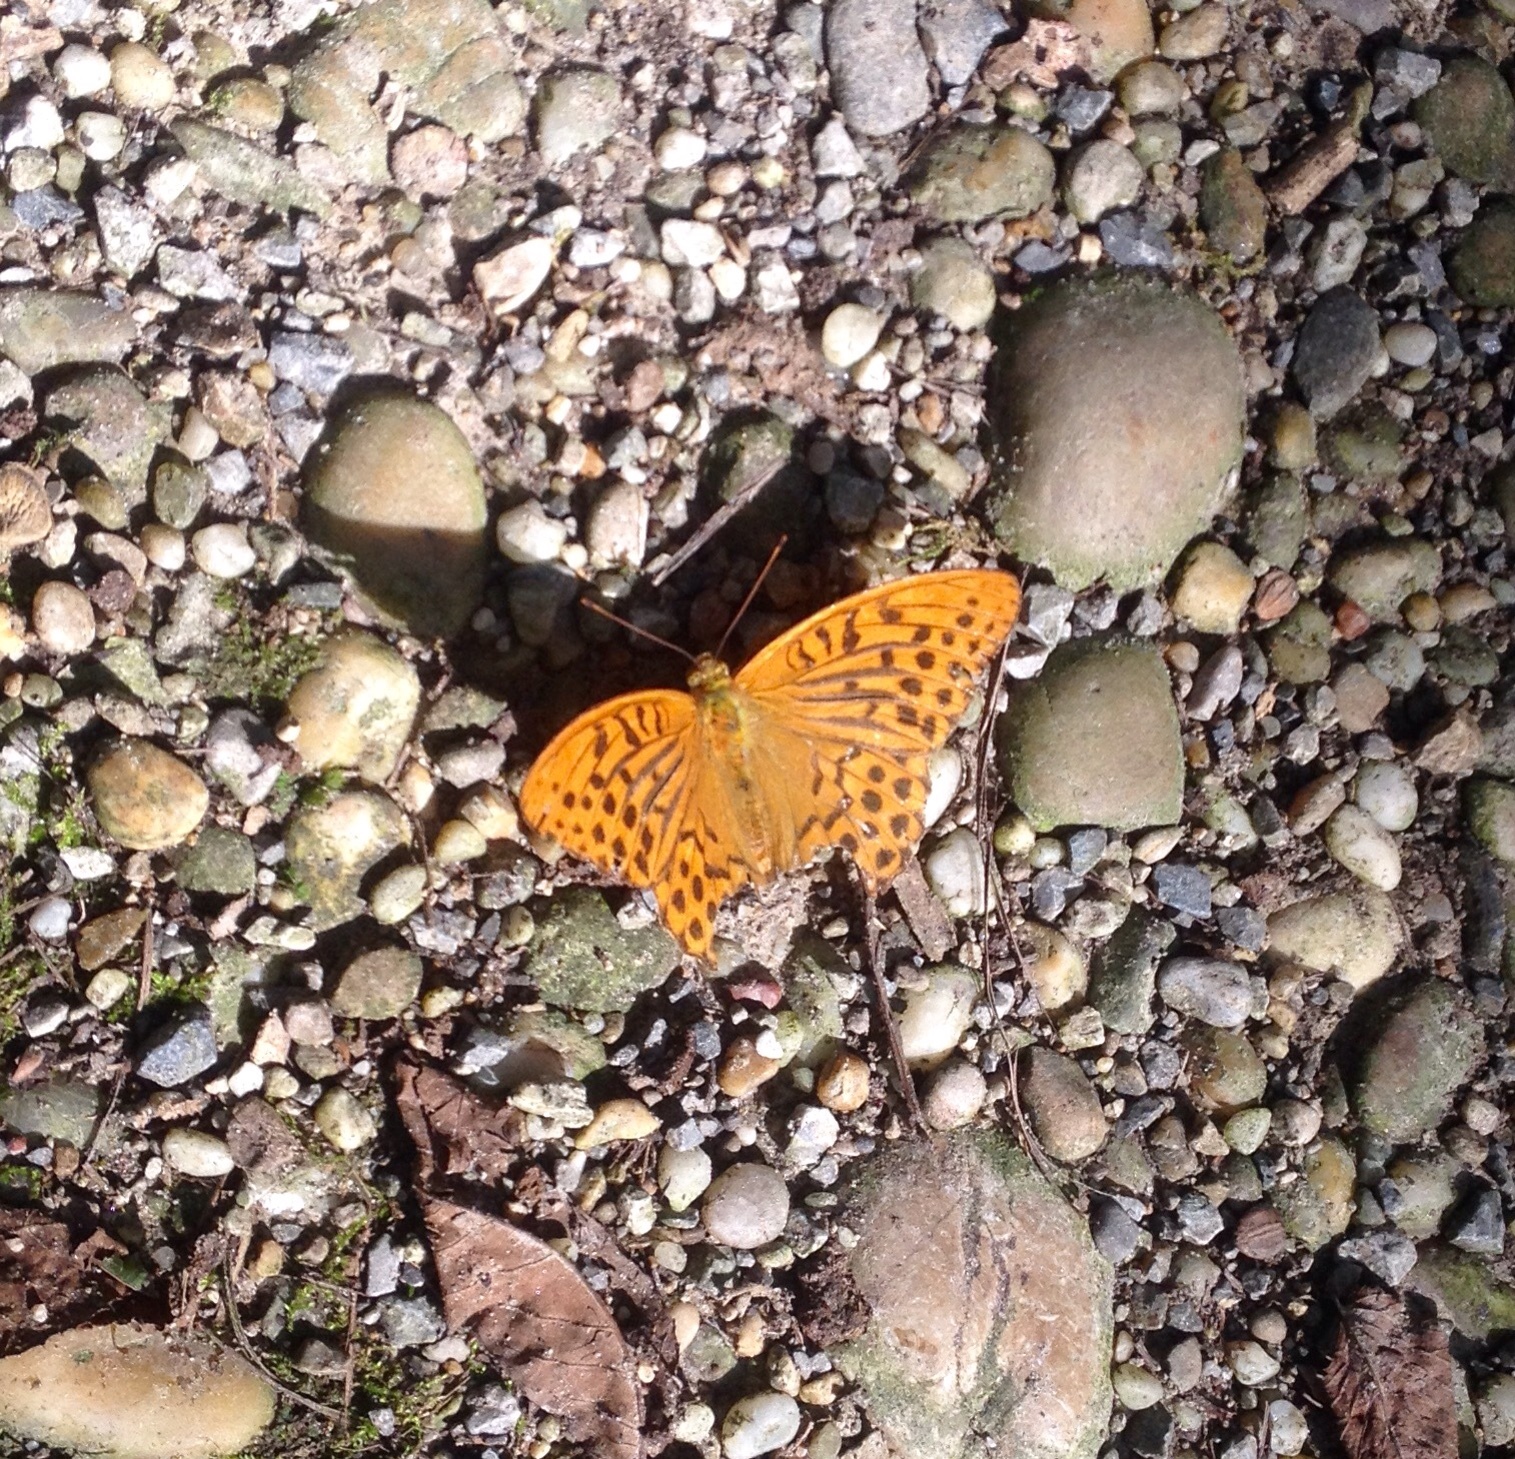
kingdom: Animalia
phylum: Arthropoda
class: Insecta
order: Lepidoptera
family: Nymphalidae
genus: Argynnis
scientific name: Argynnis paphia
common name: Silver-washed fritillary
